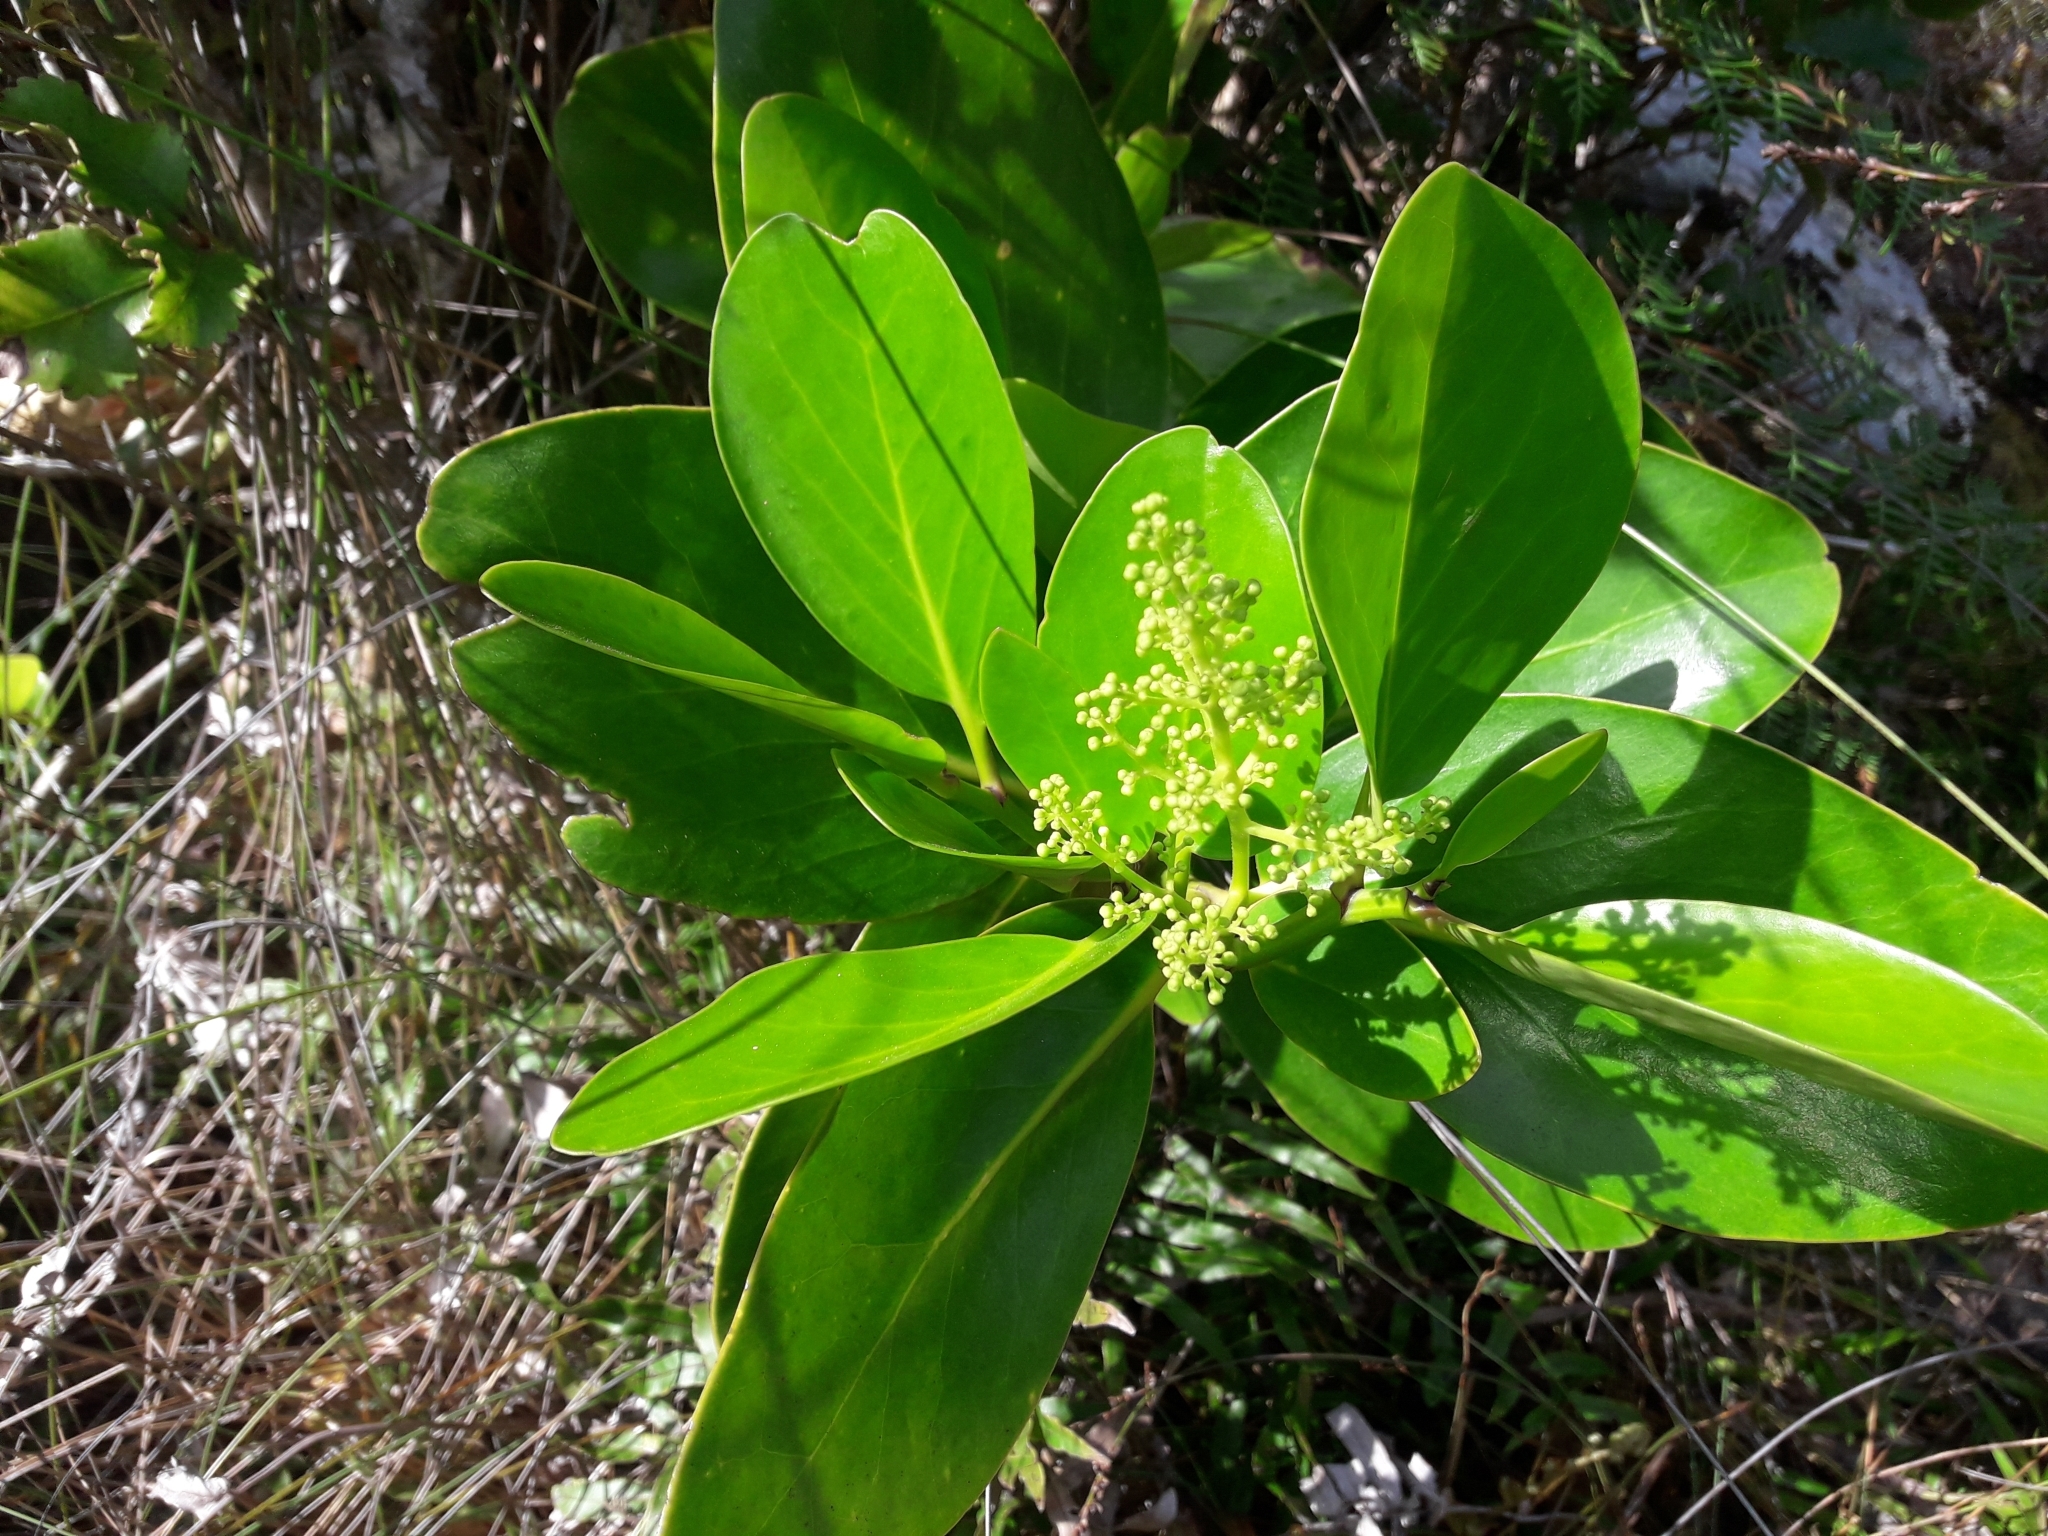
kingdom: Plantae
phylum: Tracheophyta
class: Magnoliopsida
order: Apiales
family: Griseliniaceae
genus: Griselinia
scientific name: Griselinia lucida
